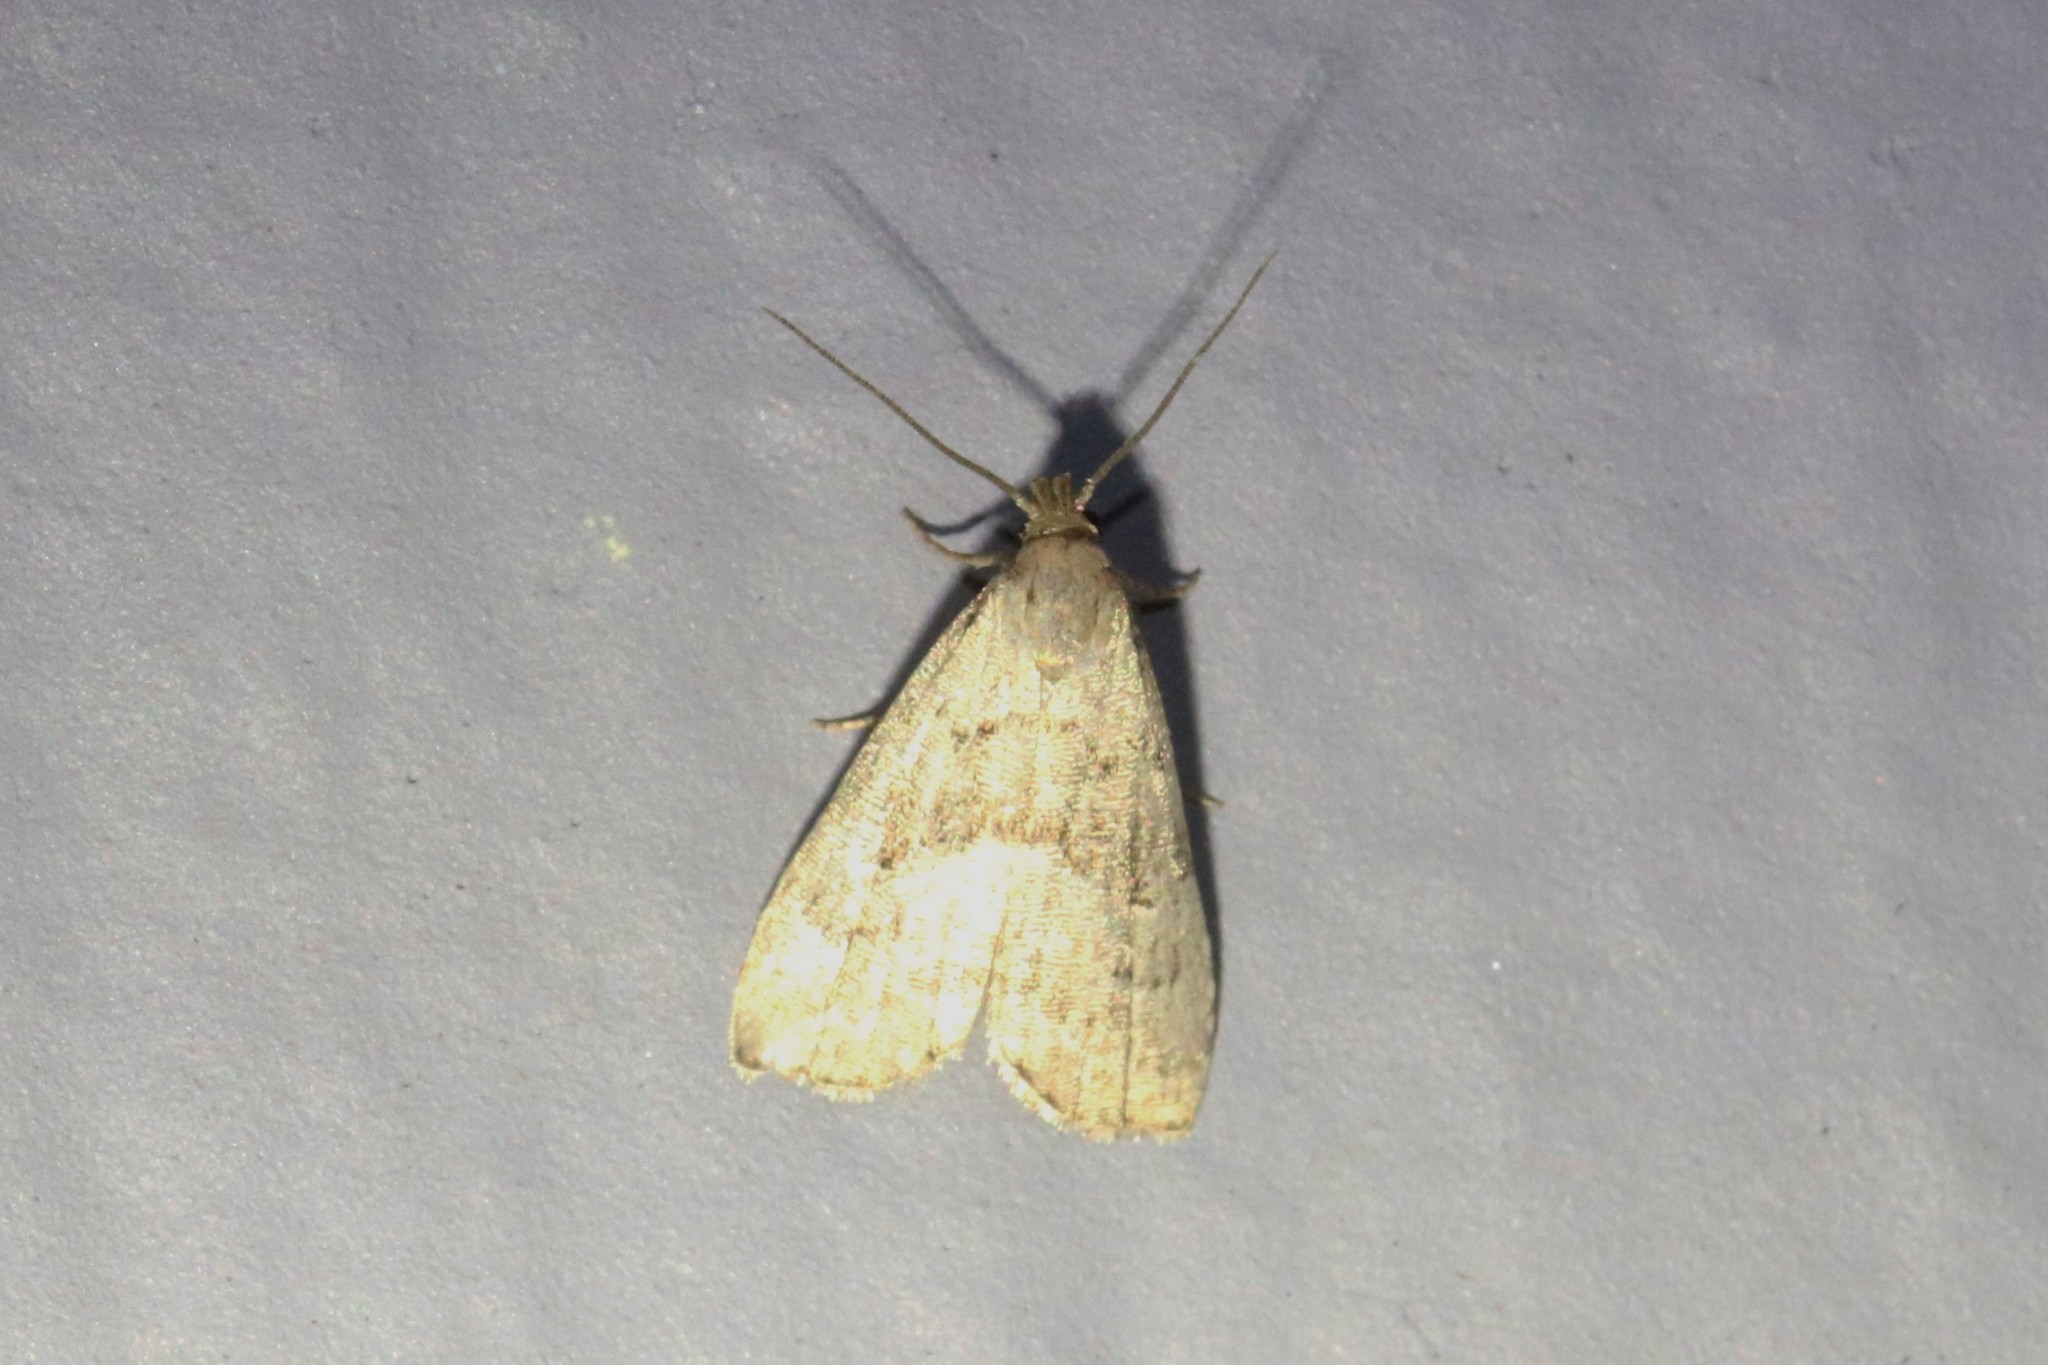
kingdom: Animalia
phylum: Arthropoda
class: Insecta
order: Lepidoptera
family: Erebidae
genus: Hypenodes
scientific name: Hypenodes fractilinea
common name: Broken-line hypenodes moth
